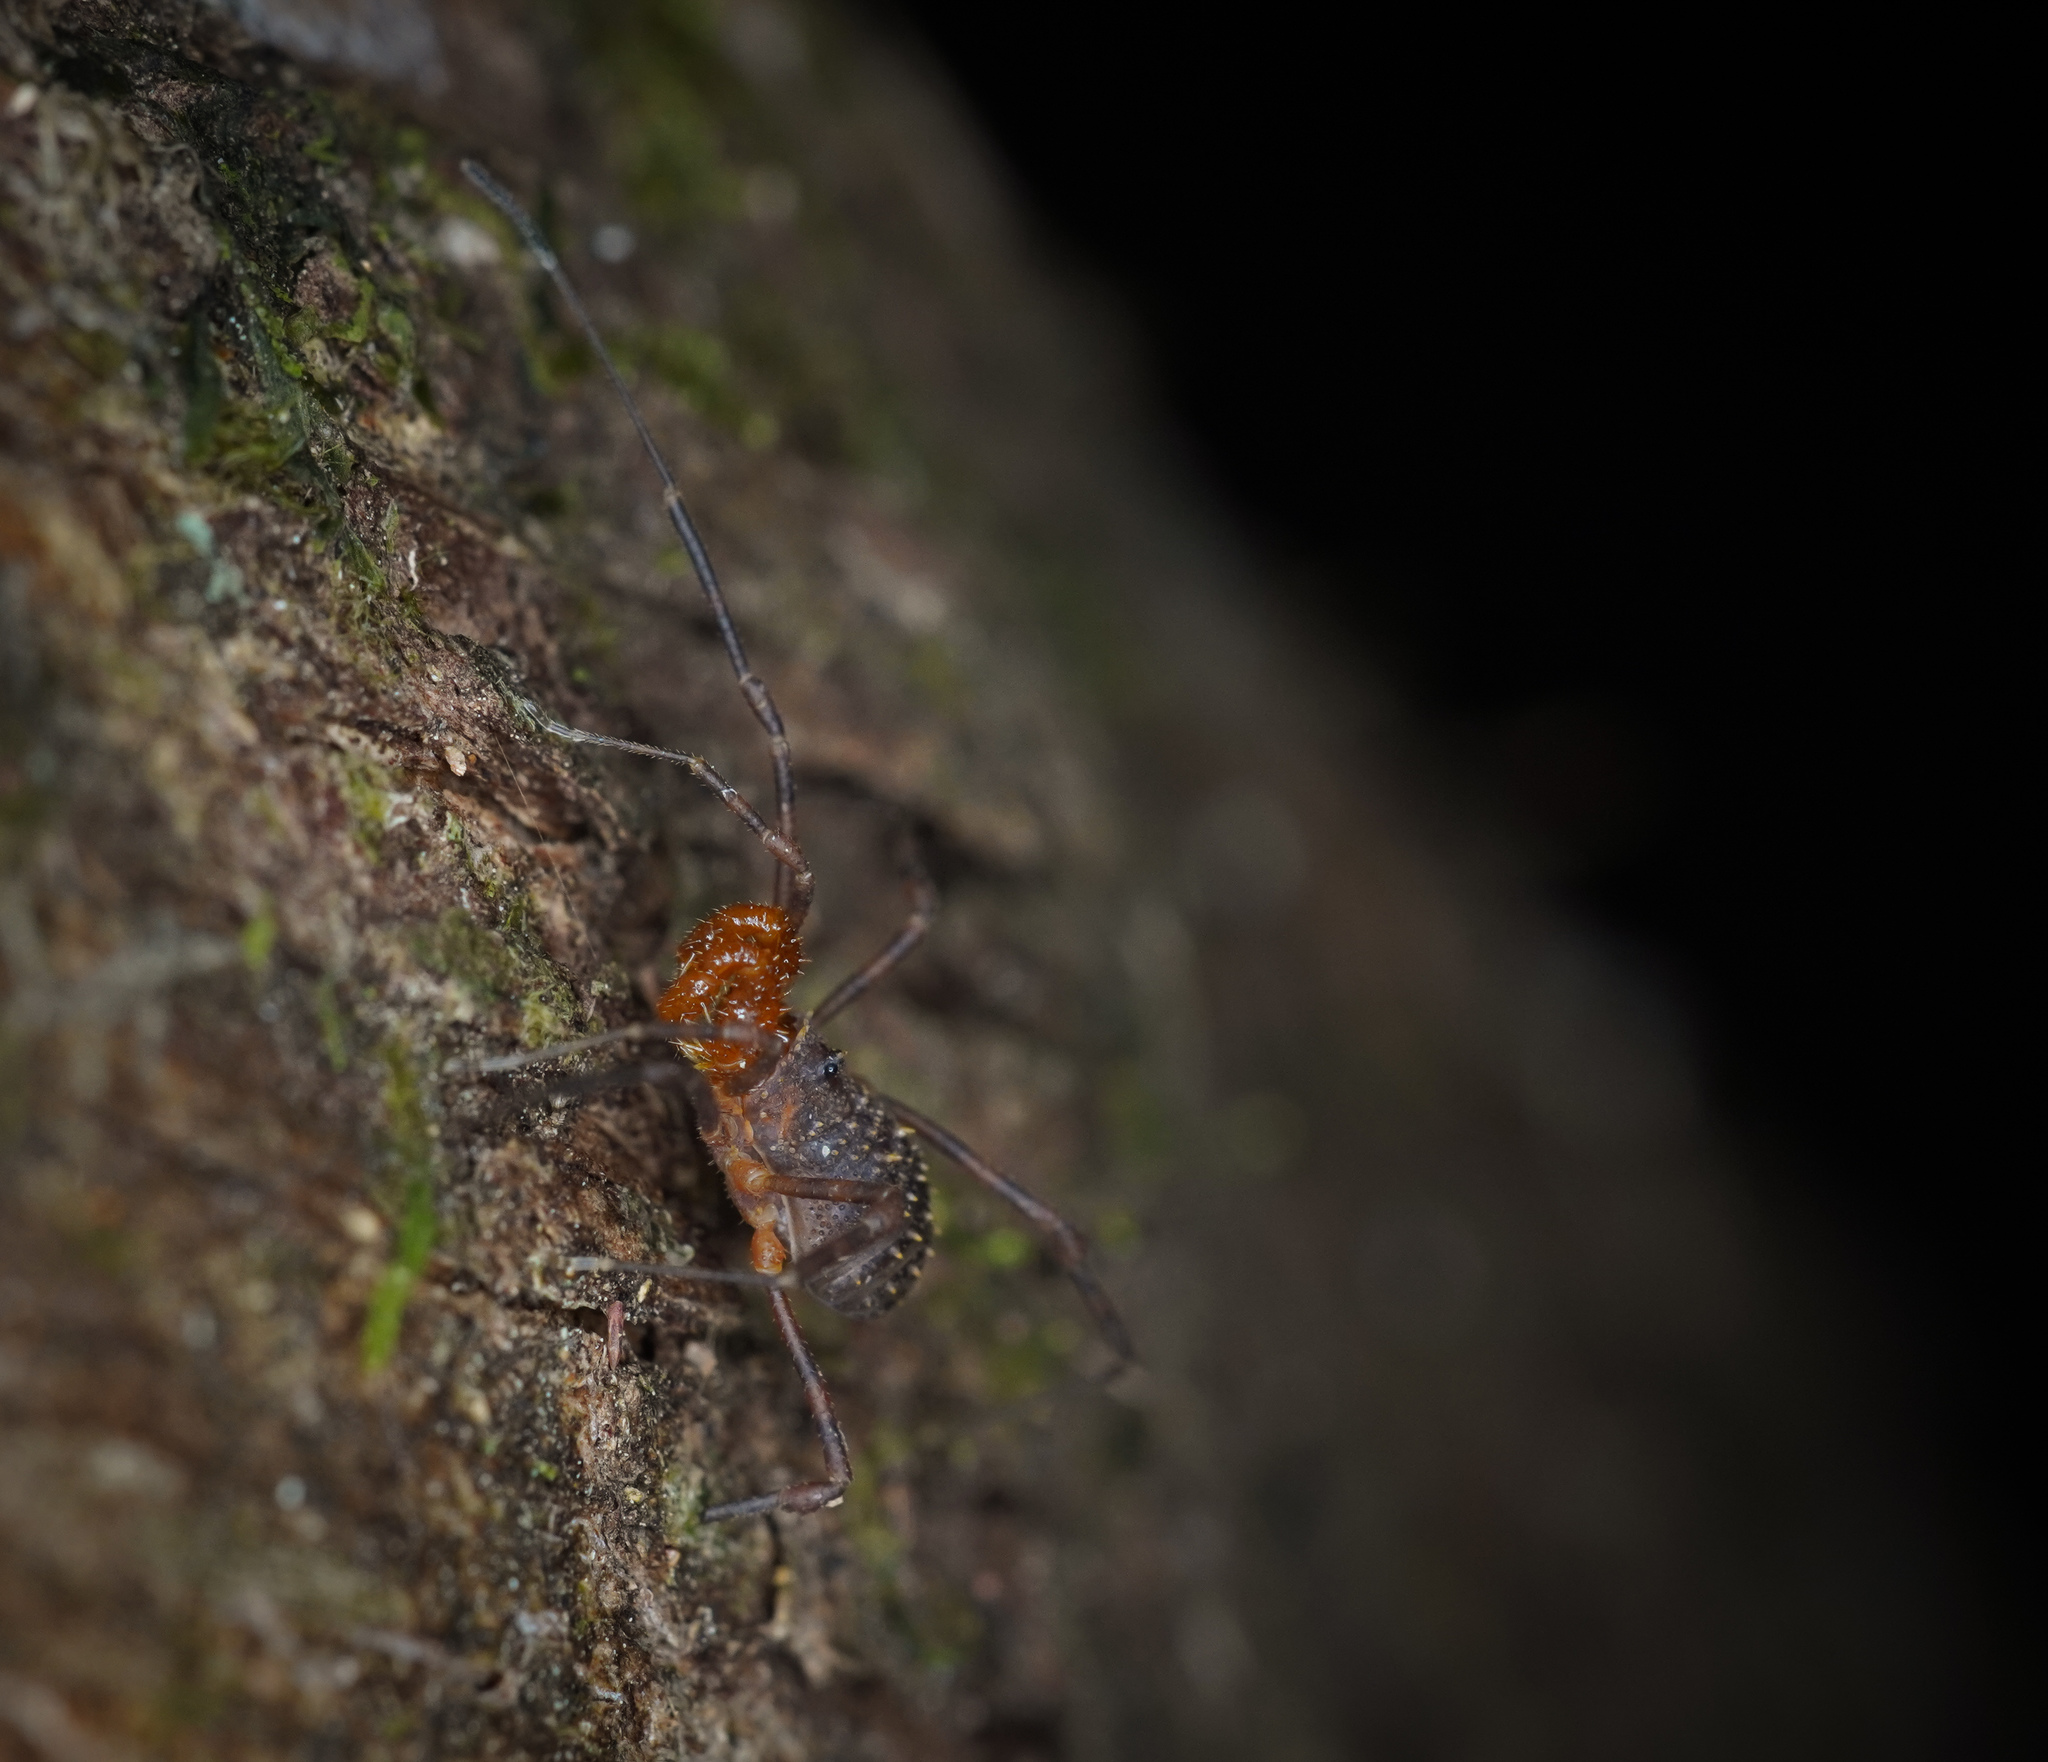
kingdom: Animalia
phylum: Arthropoda
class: Arachnida
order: Opiliones
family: Triaenonychidae
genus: Prasma
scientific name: Prasma tuberculata
